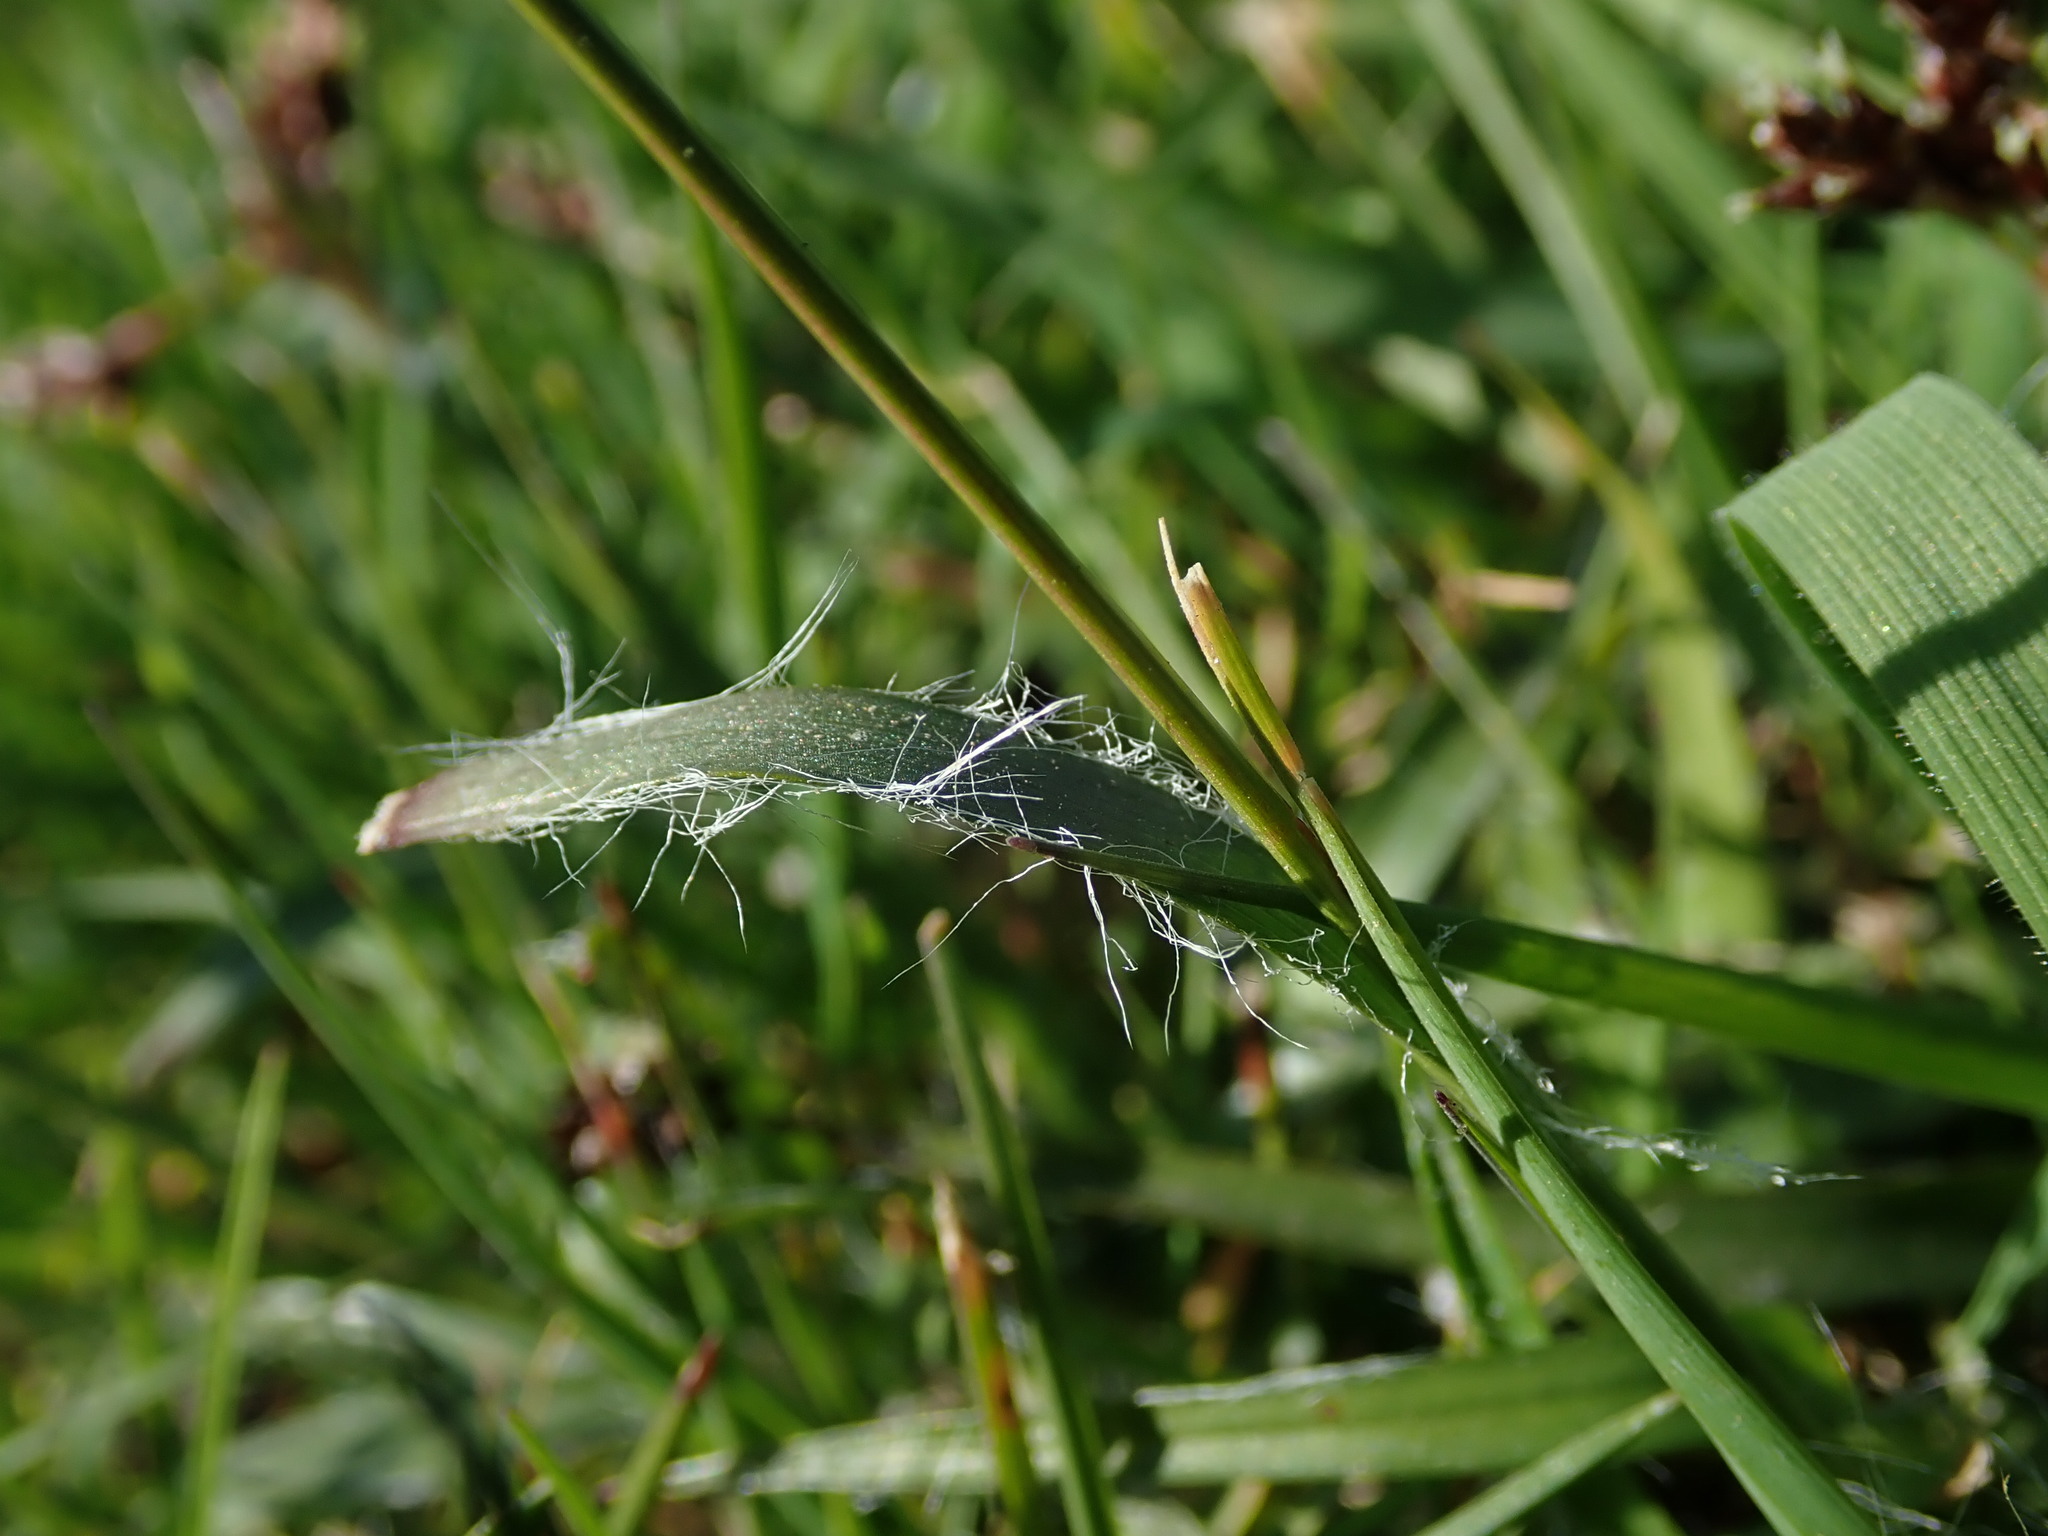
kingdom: Plantae
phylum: Tracheophyta
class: Liliopsida
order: Poales
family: Juncaceae
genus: Luzula
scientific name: Luzula campestris
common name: Field wood-rush
